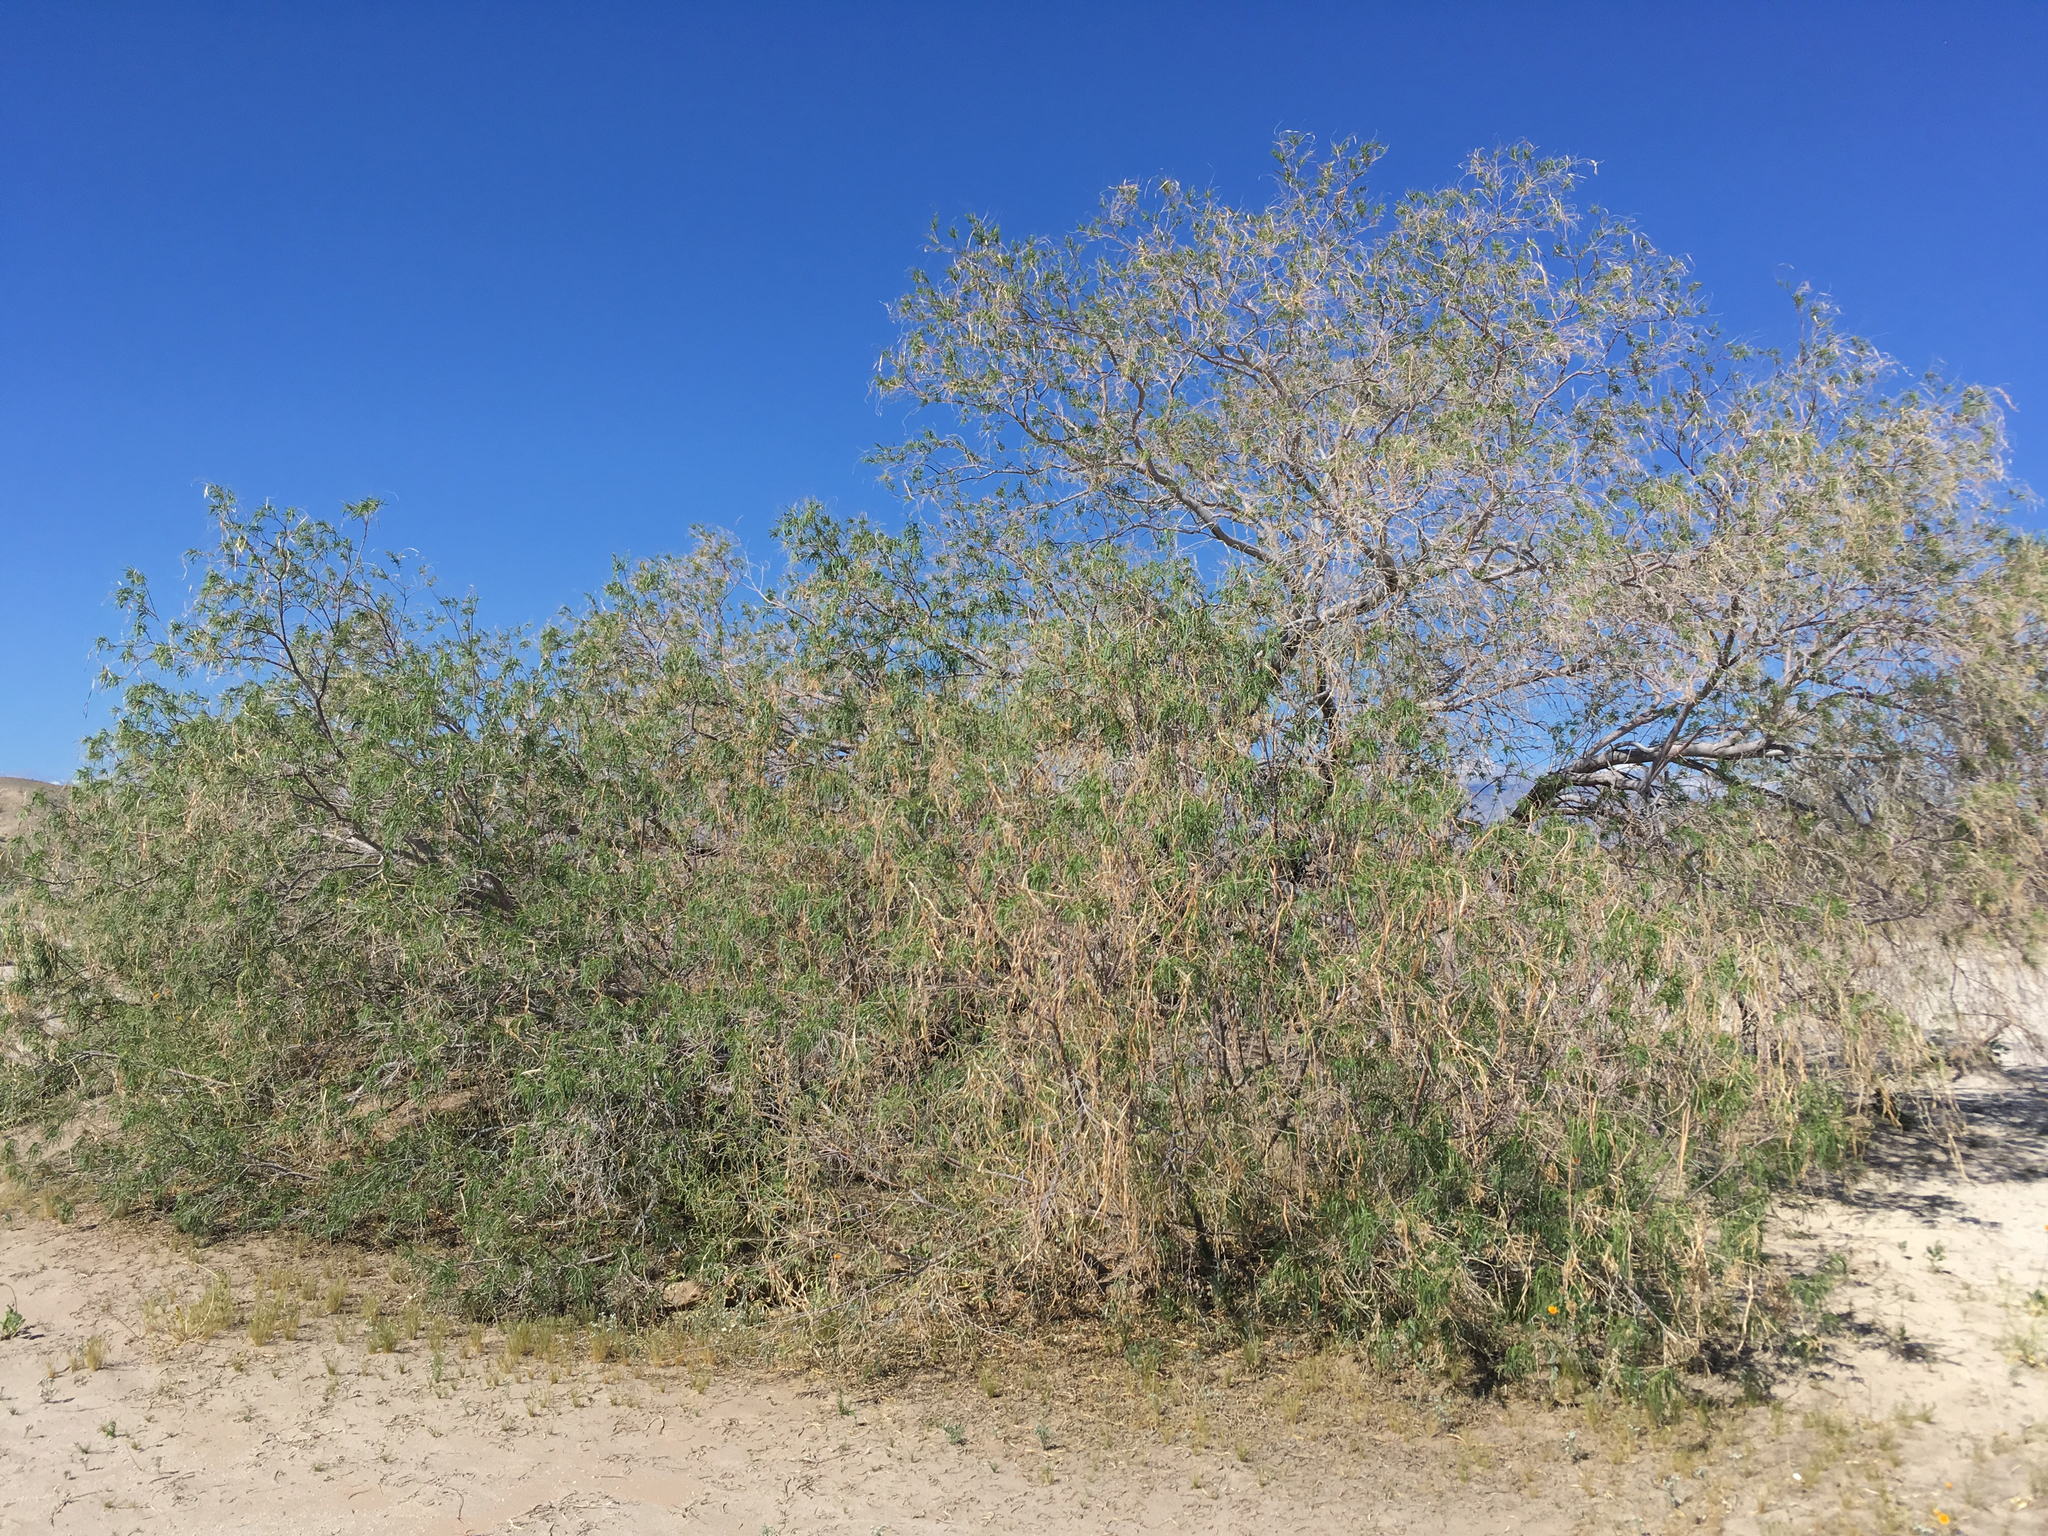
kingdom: Plantae
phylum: Tracheophyta
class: Magnoliopsida
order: Lamiales
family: Bignoniaceae
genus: Chilopsis
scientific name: Chilopsis linearis
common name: Desert-willow
